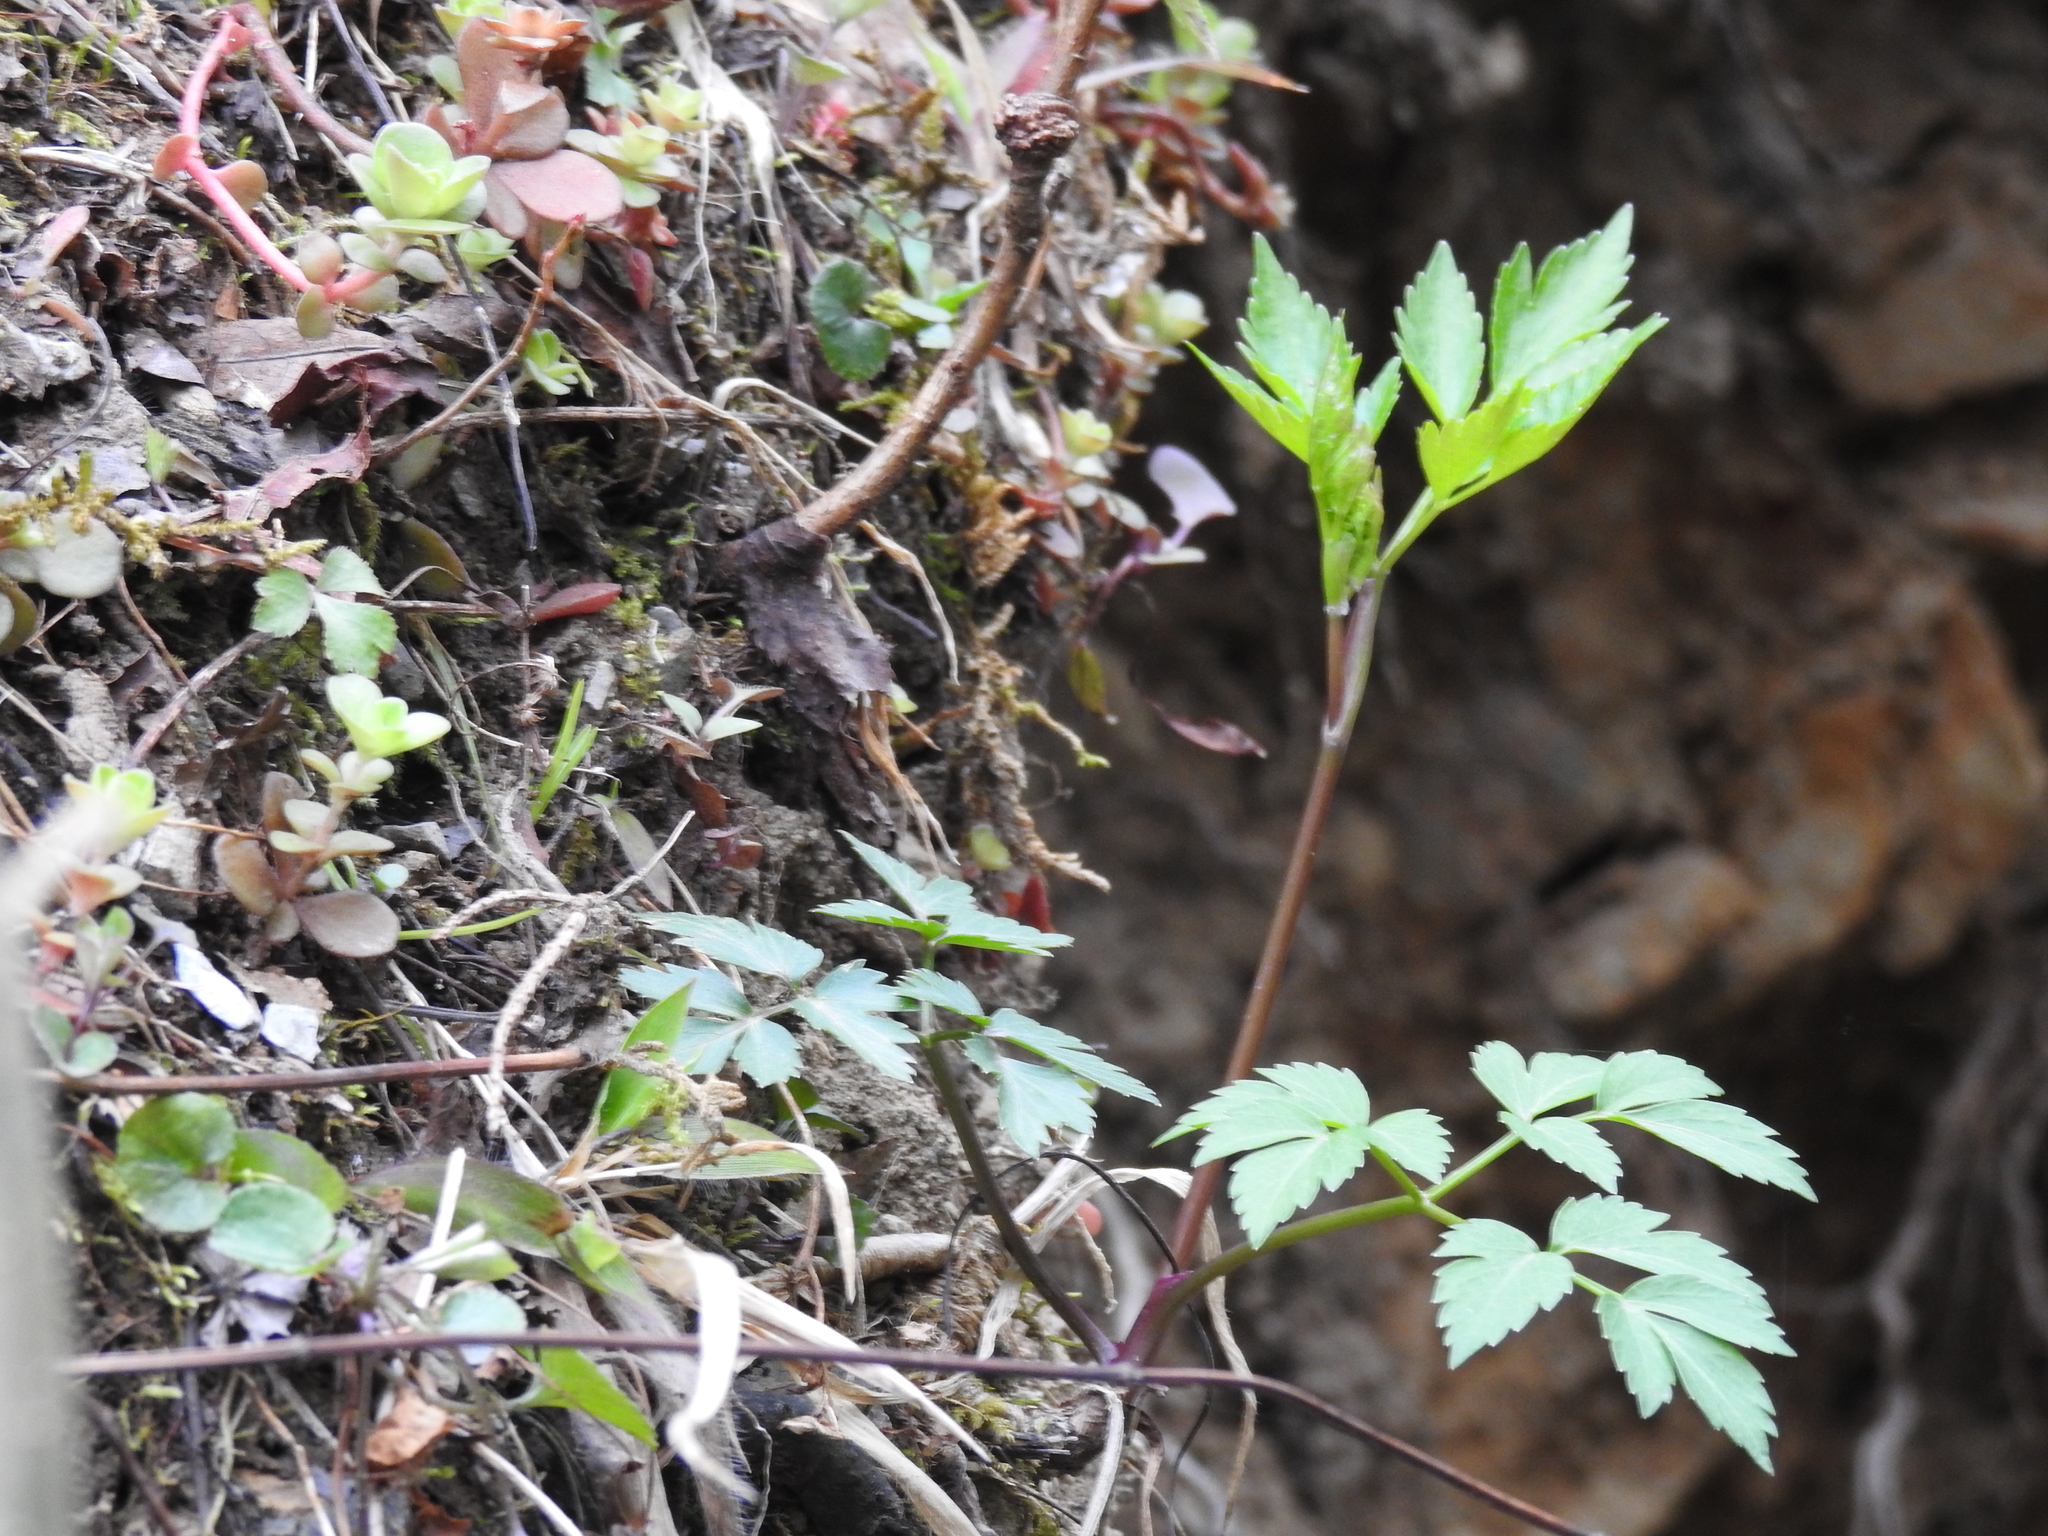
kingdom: Plantae
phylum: Tracheophyta
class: Magnoliopsida
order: Apiales
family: Apiaceae
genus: Thaspium
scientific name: Thaspium barbinode
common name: Bearded meadow-parsnip
